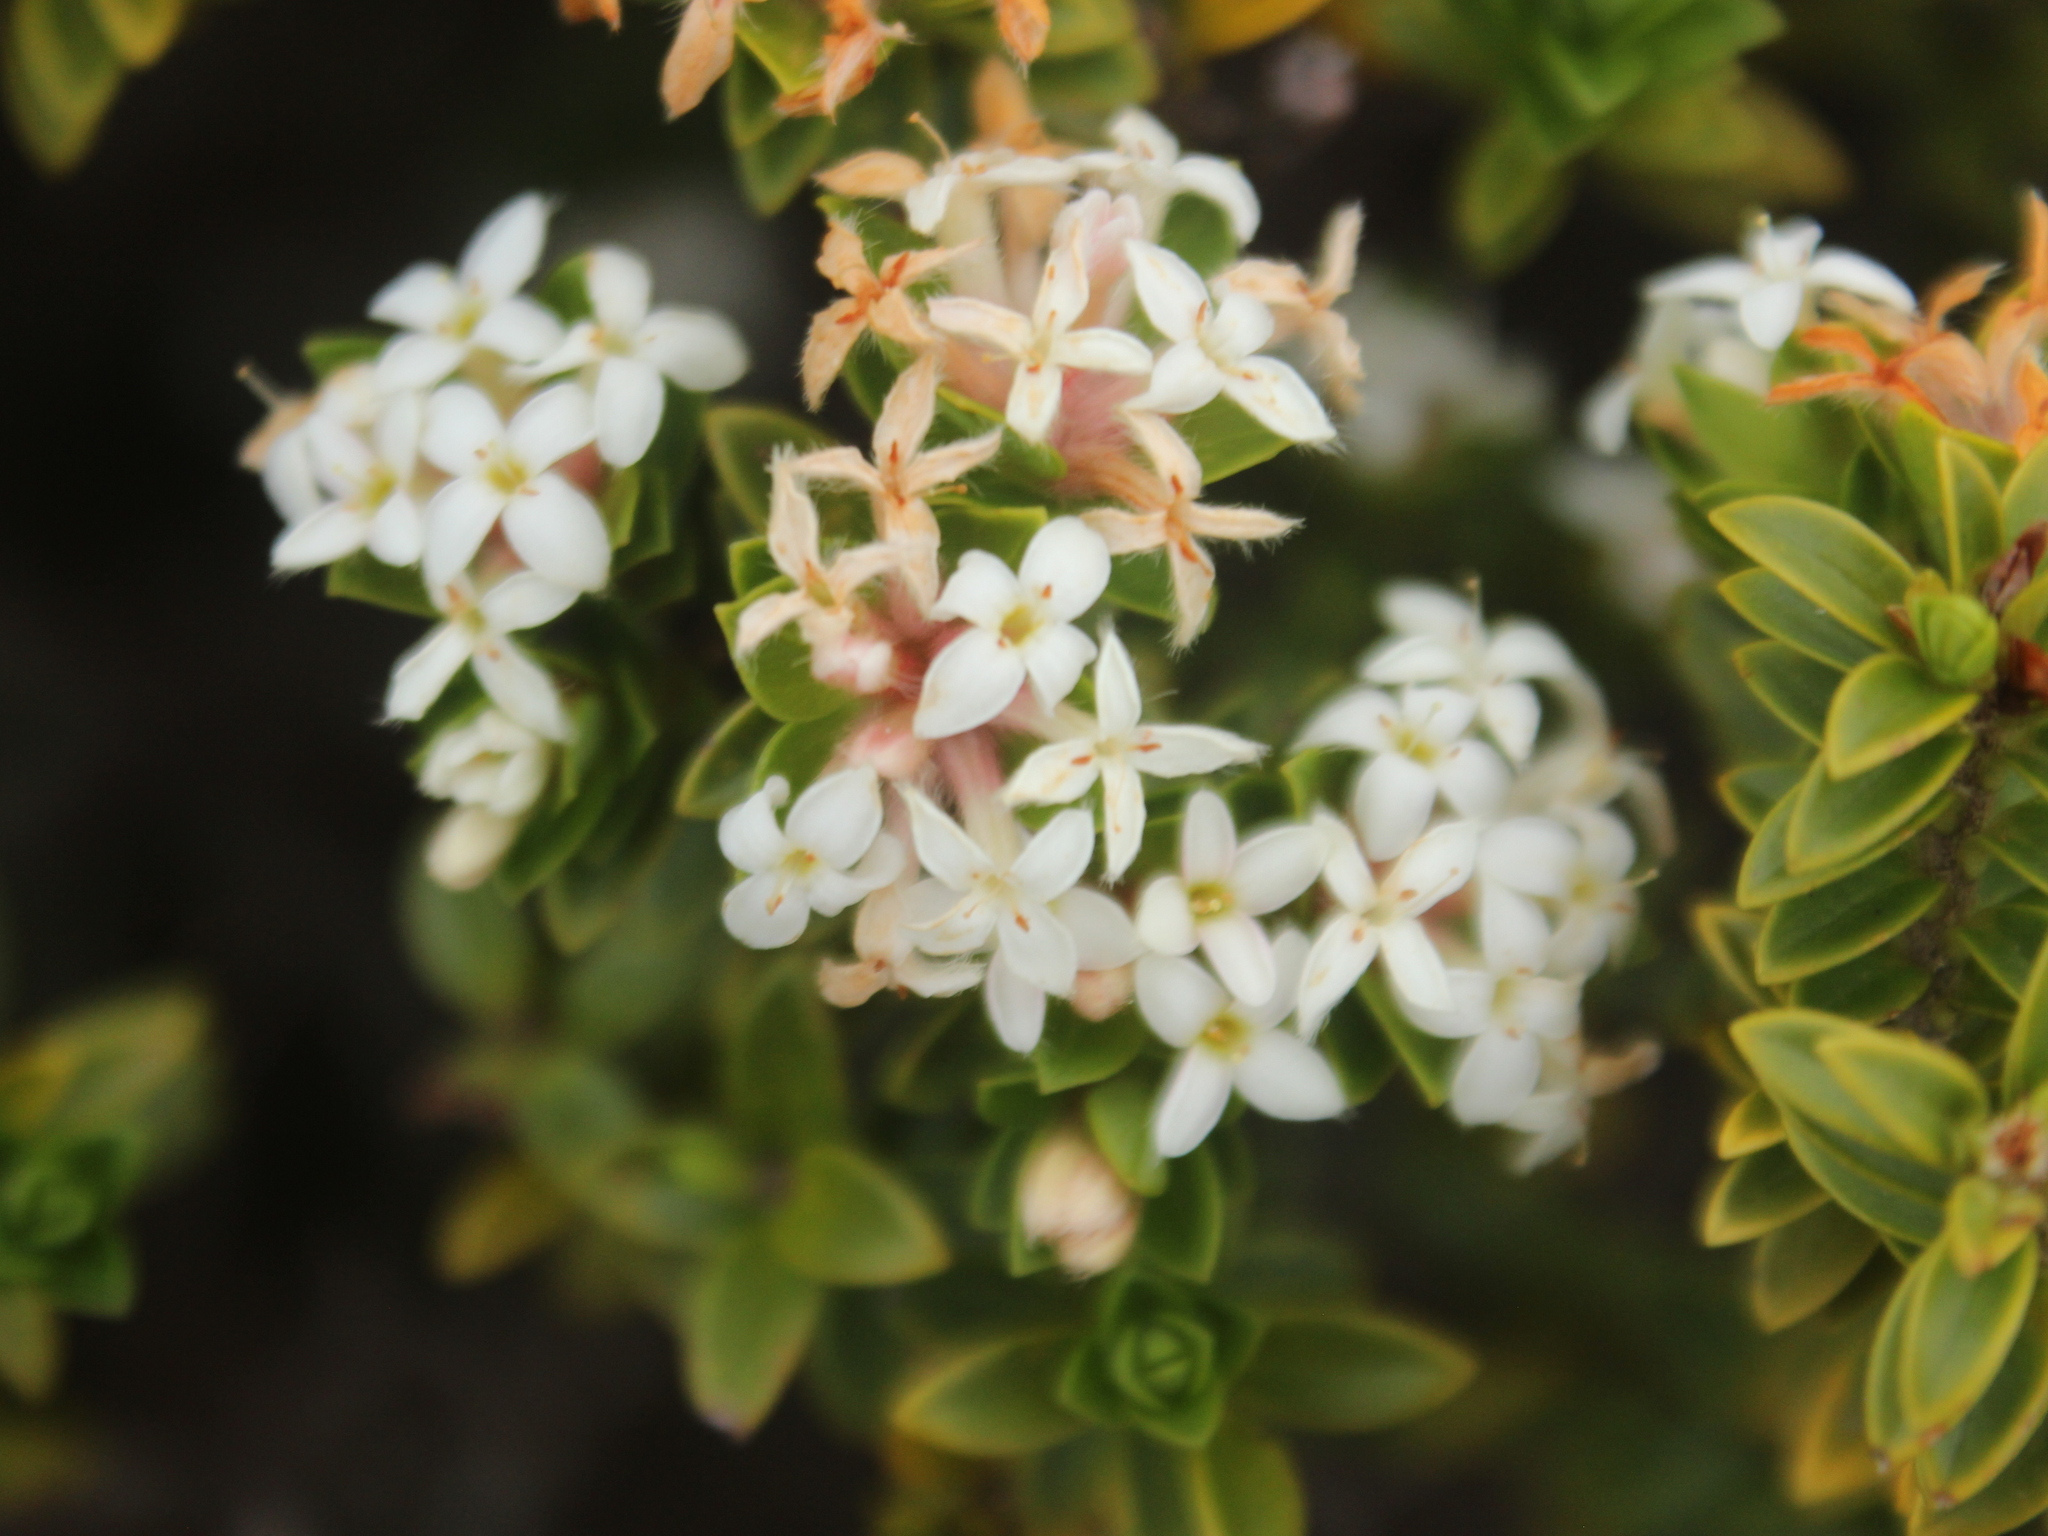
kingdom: Plantae
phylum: Tracheophyta
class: Magnoliopsida
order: Malvales
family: Thymelaeaceae
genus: Pimelea
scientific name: Pimelea buxifolia
